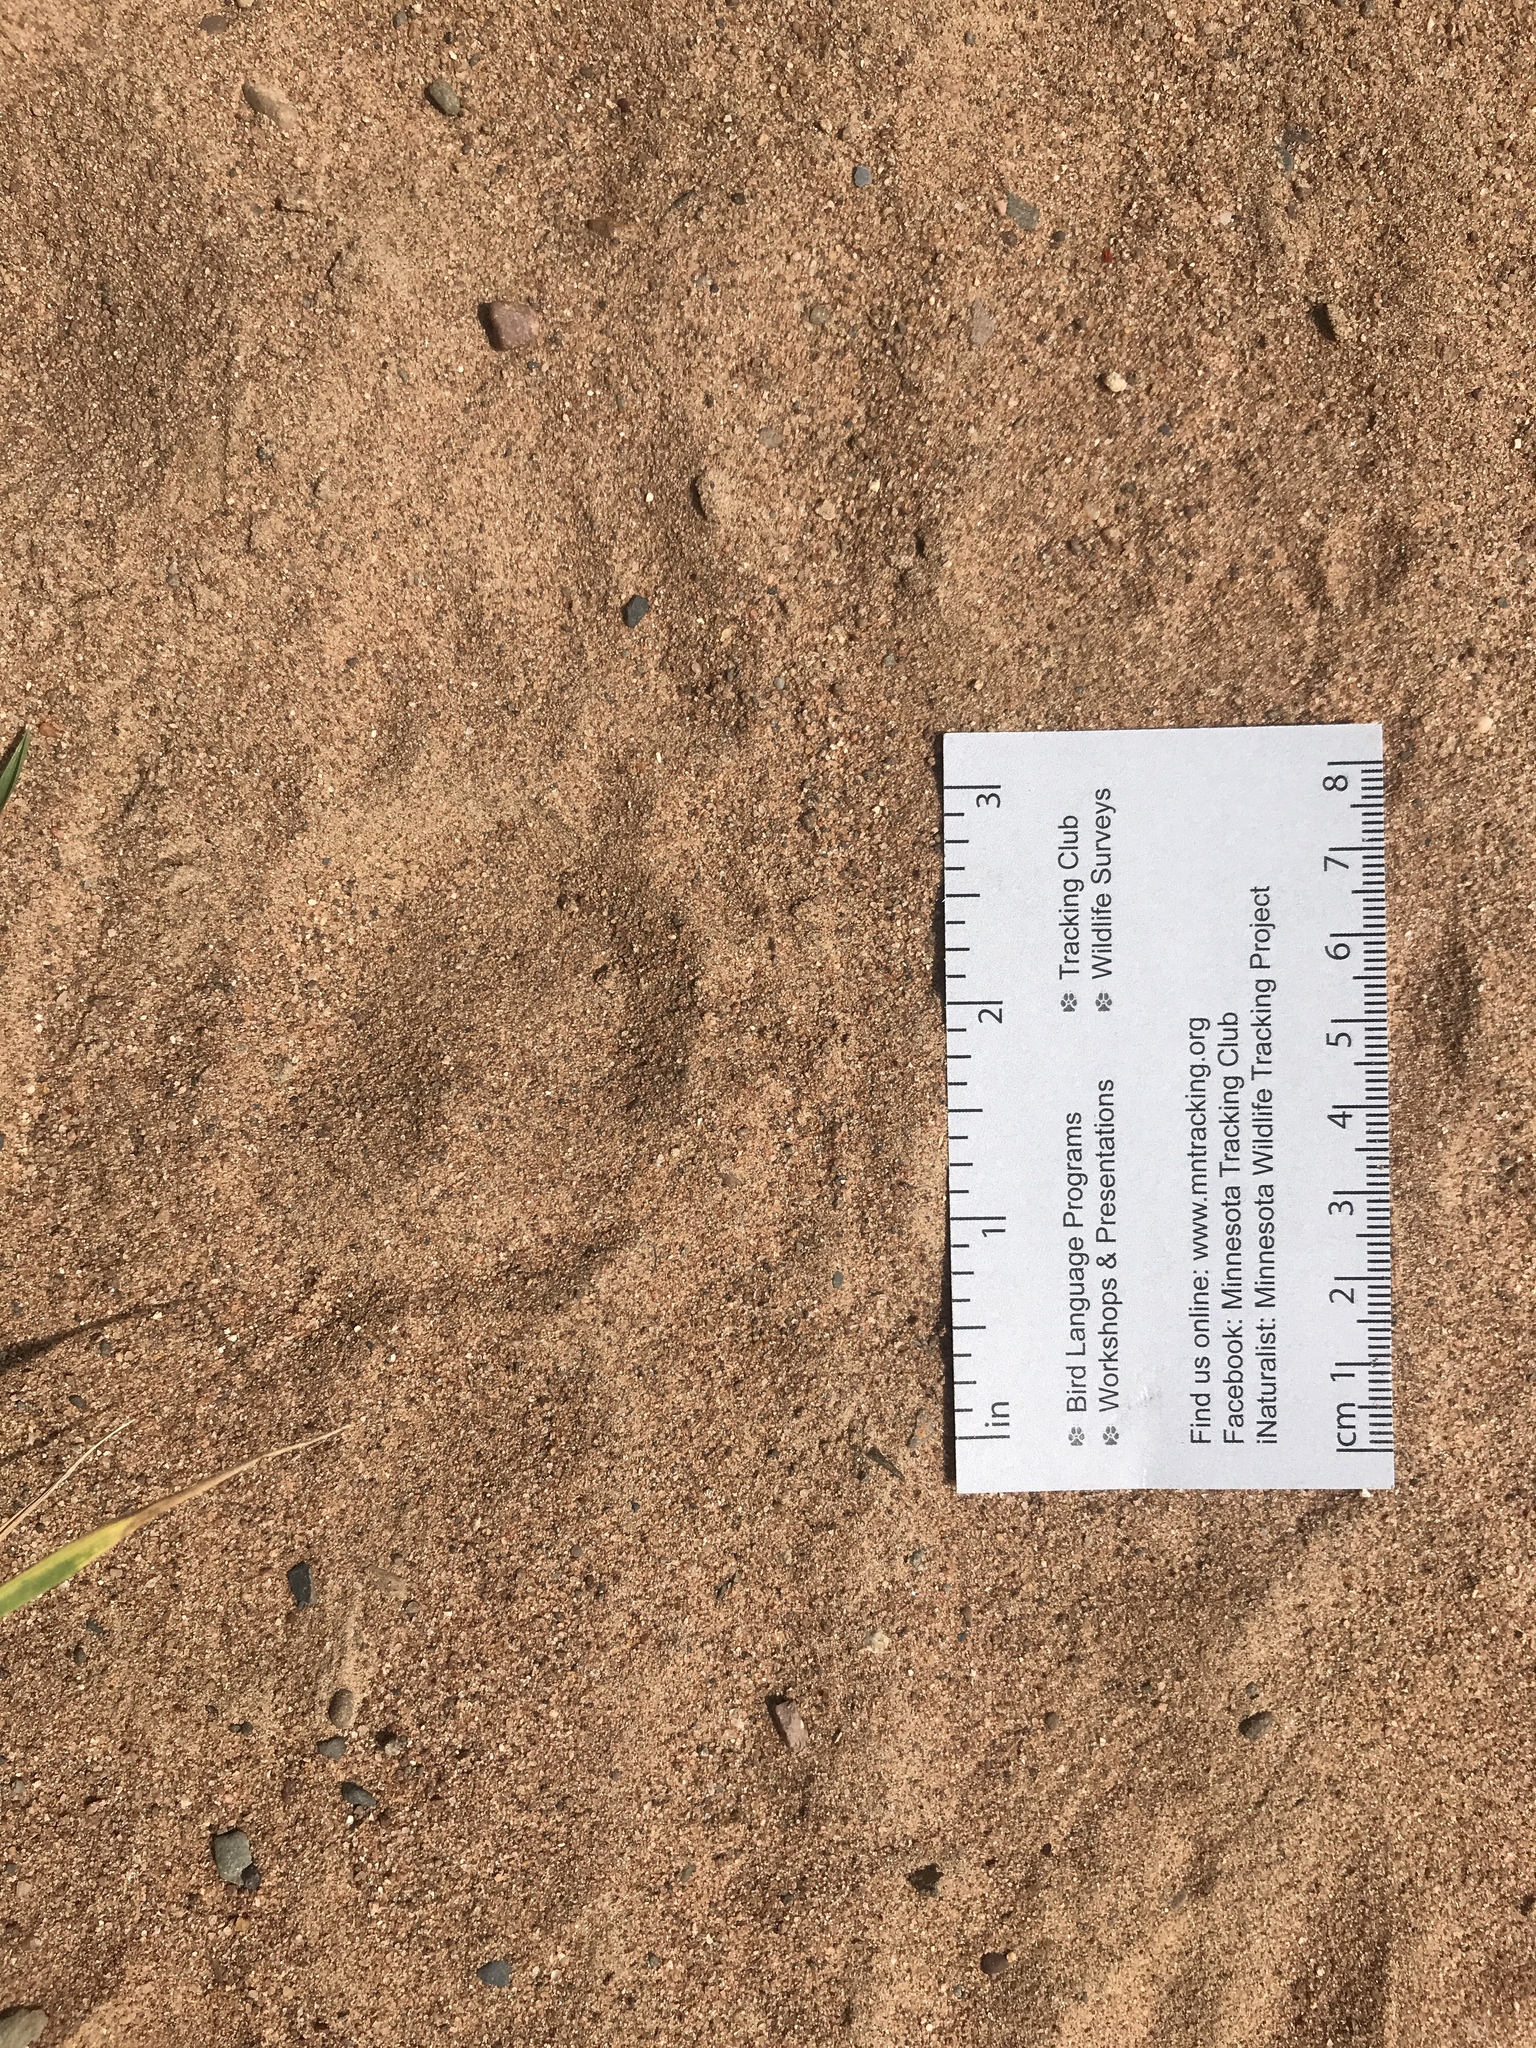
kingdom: Animalia
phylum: Chordata
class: Mammalia
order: Rodentia
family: Erethizontidae
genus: Erethizon
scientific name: Erethizon dorsatus
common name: North american porcupine
